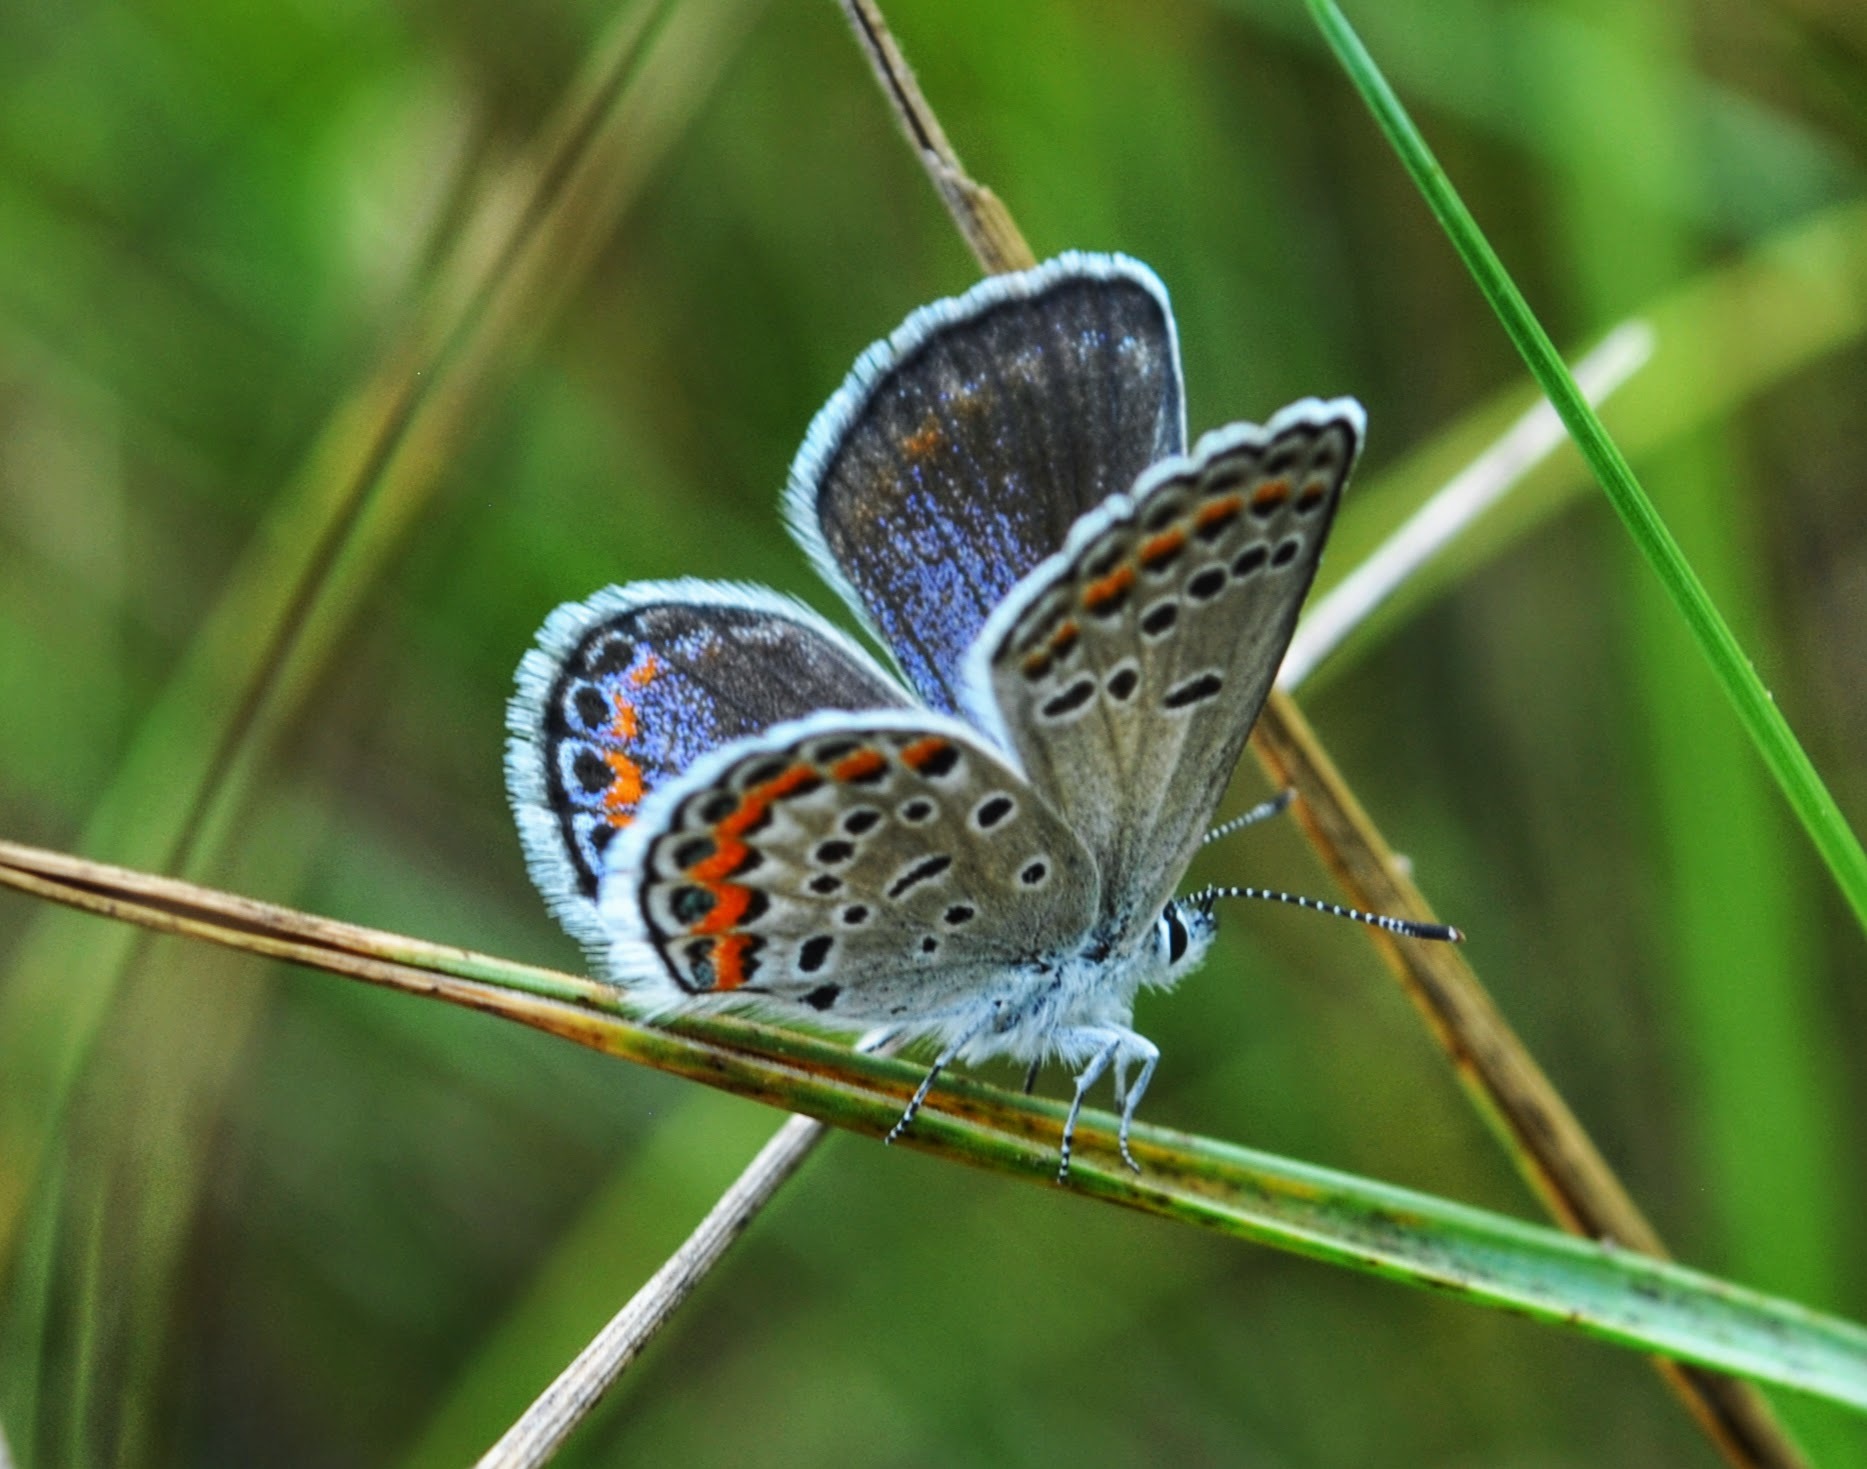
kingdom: Animalia
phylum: Arthropoda
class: Insecta
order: Lepidoptera
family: Lycaenidae
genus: Plebejus
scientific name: Plebejus samuelis
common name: Karner blue
